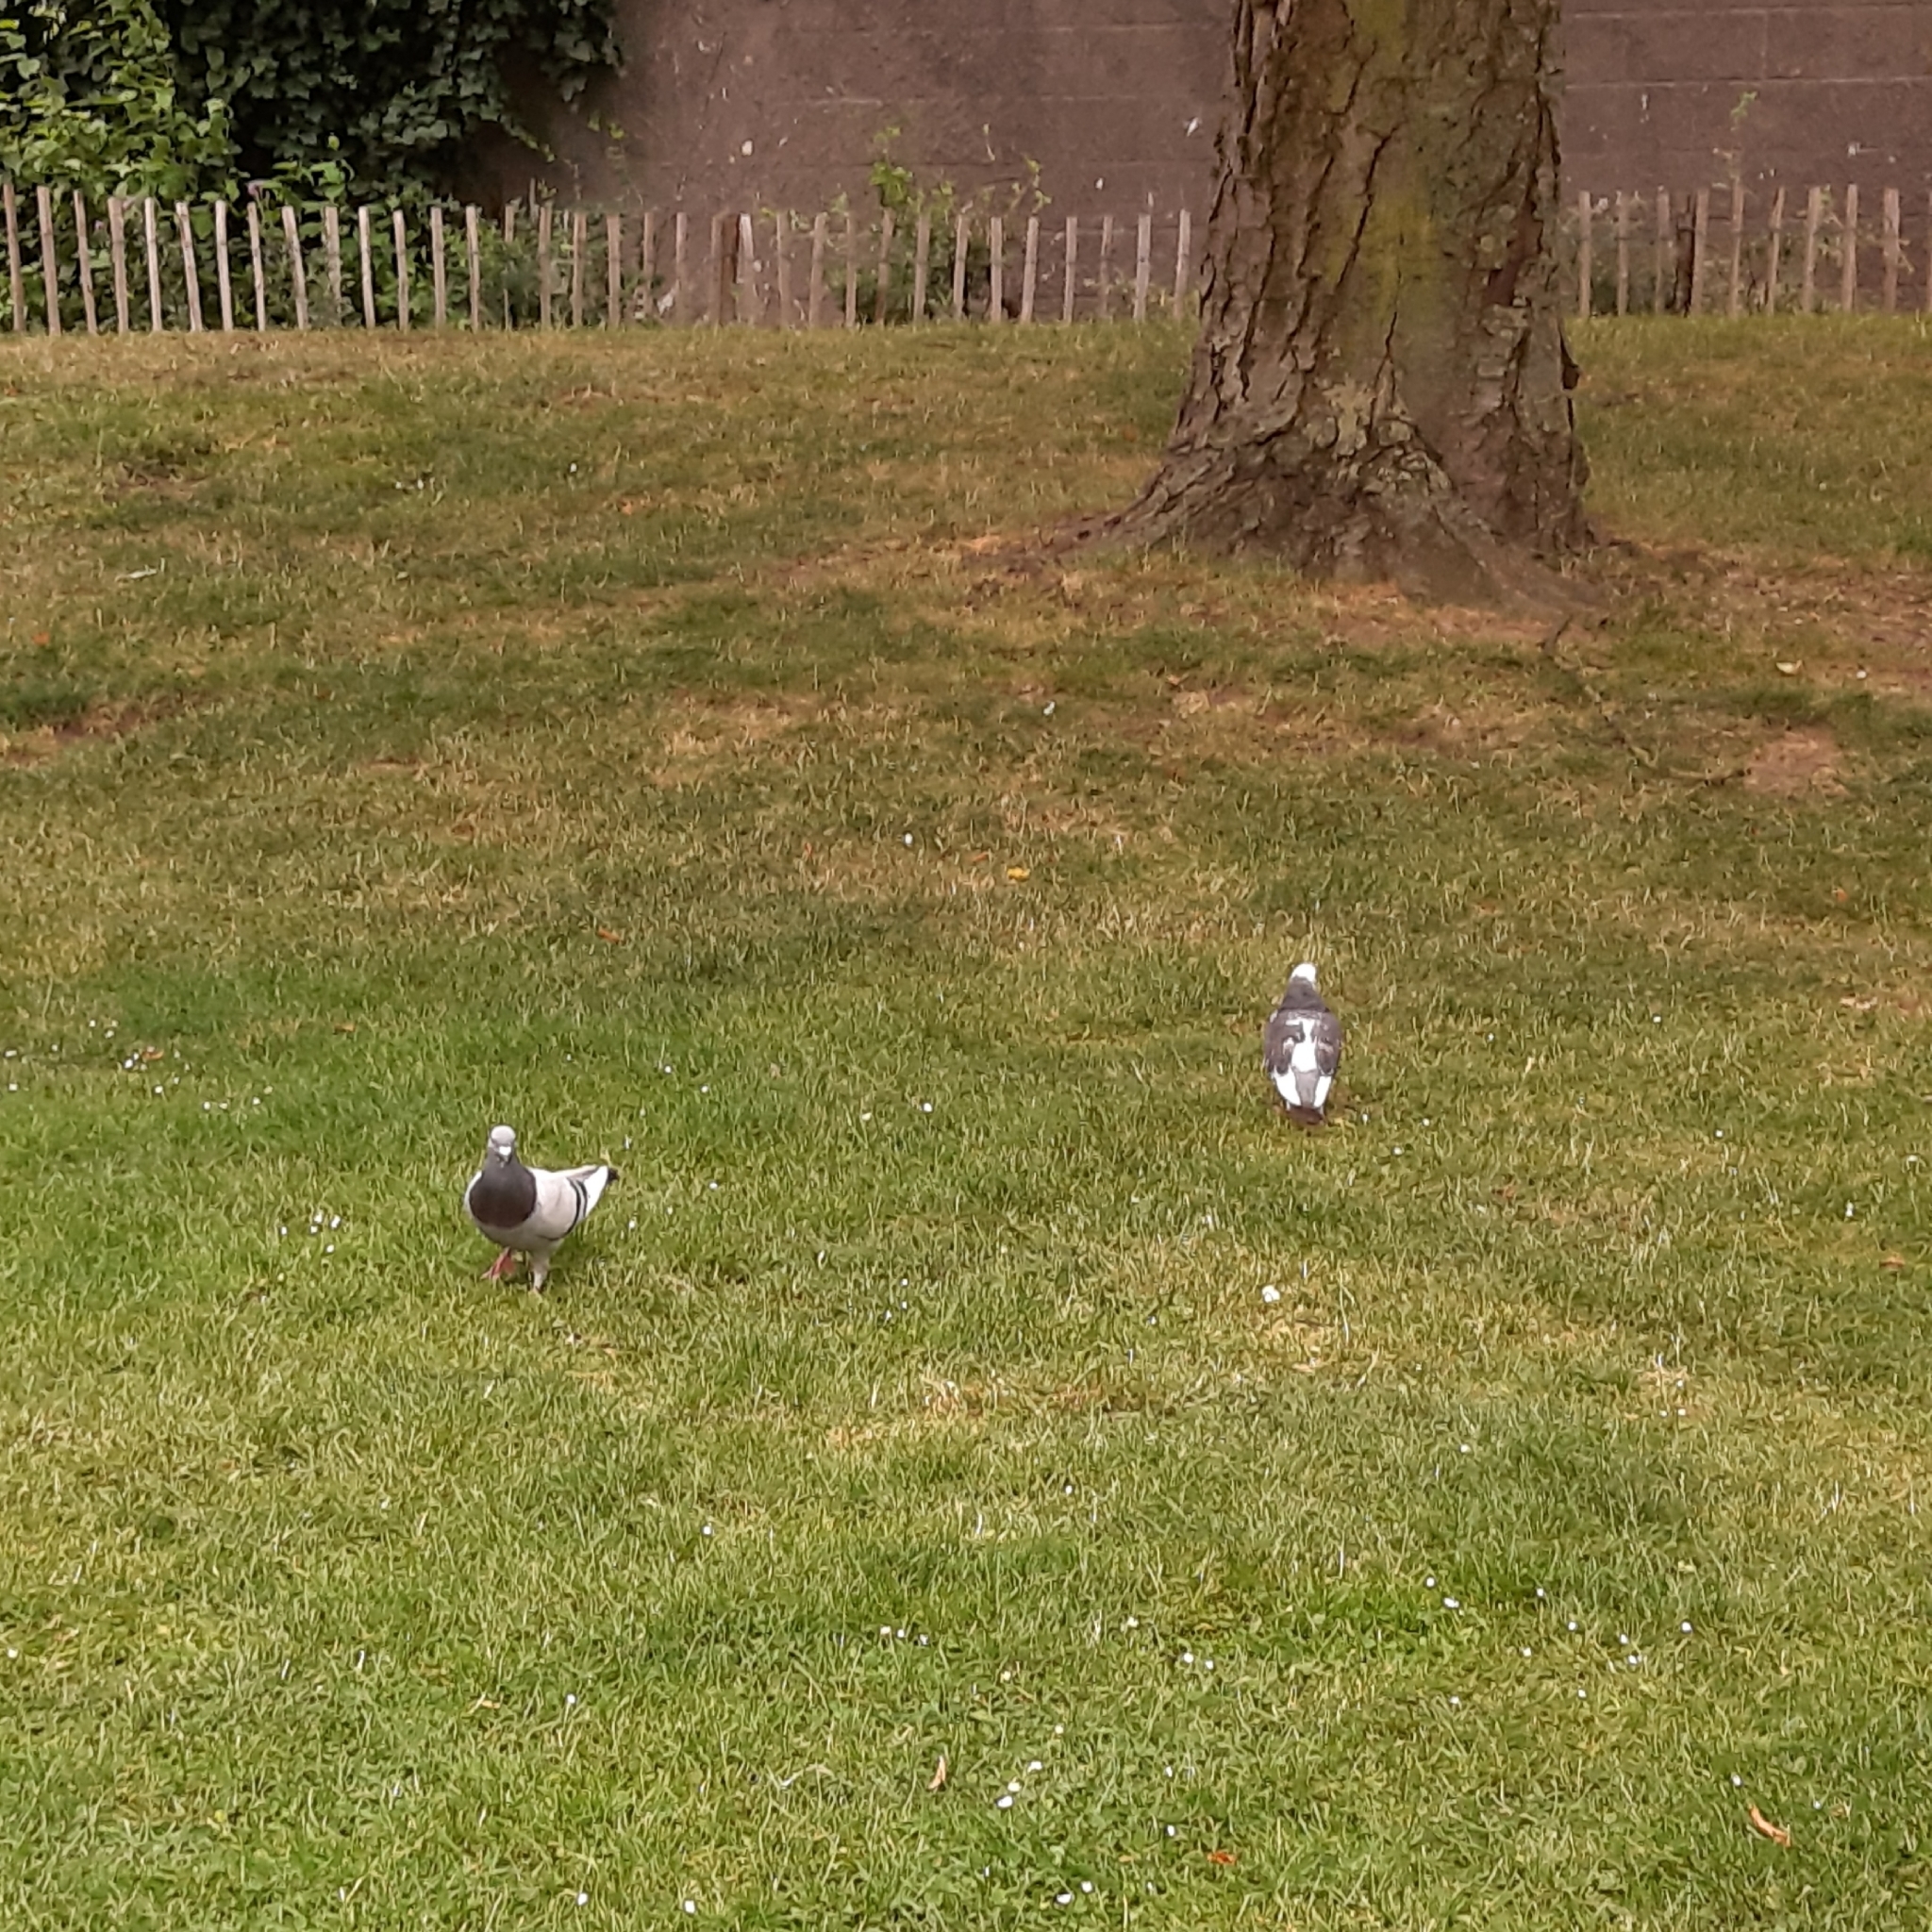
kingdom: Animalia
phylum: Chordata
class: Aves
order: Columbiformes
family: Columbidae
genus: Columba
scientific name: Columba livia
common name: Rock pigeon
